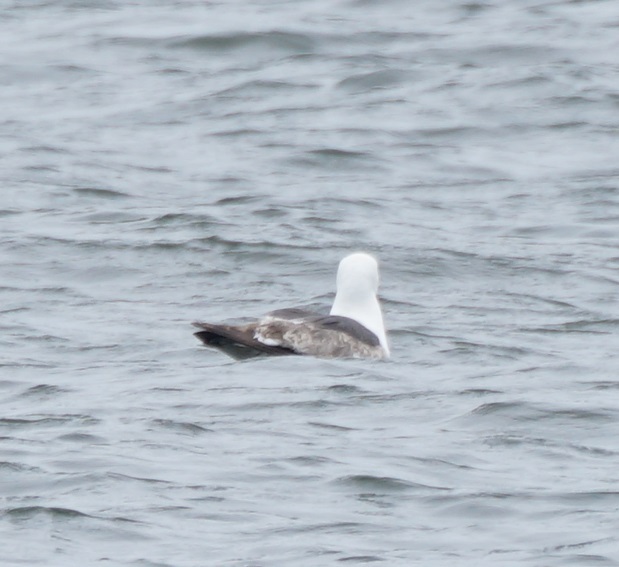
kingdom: Animalia
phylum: Chordata
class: Aves
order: Charadriiformes
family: Laridae
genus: Larus
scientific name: Larus fuscus
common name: Lesser black-backed gull
